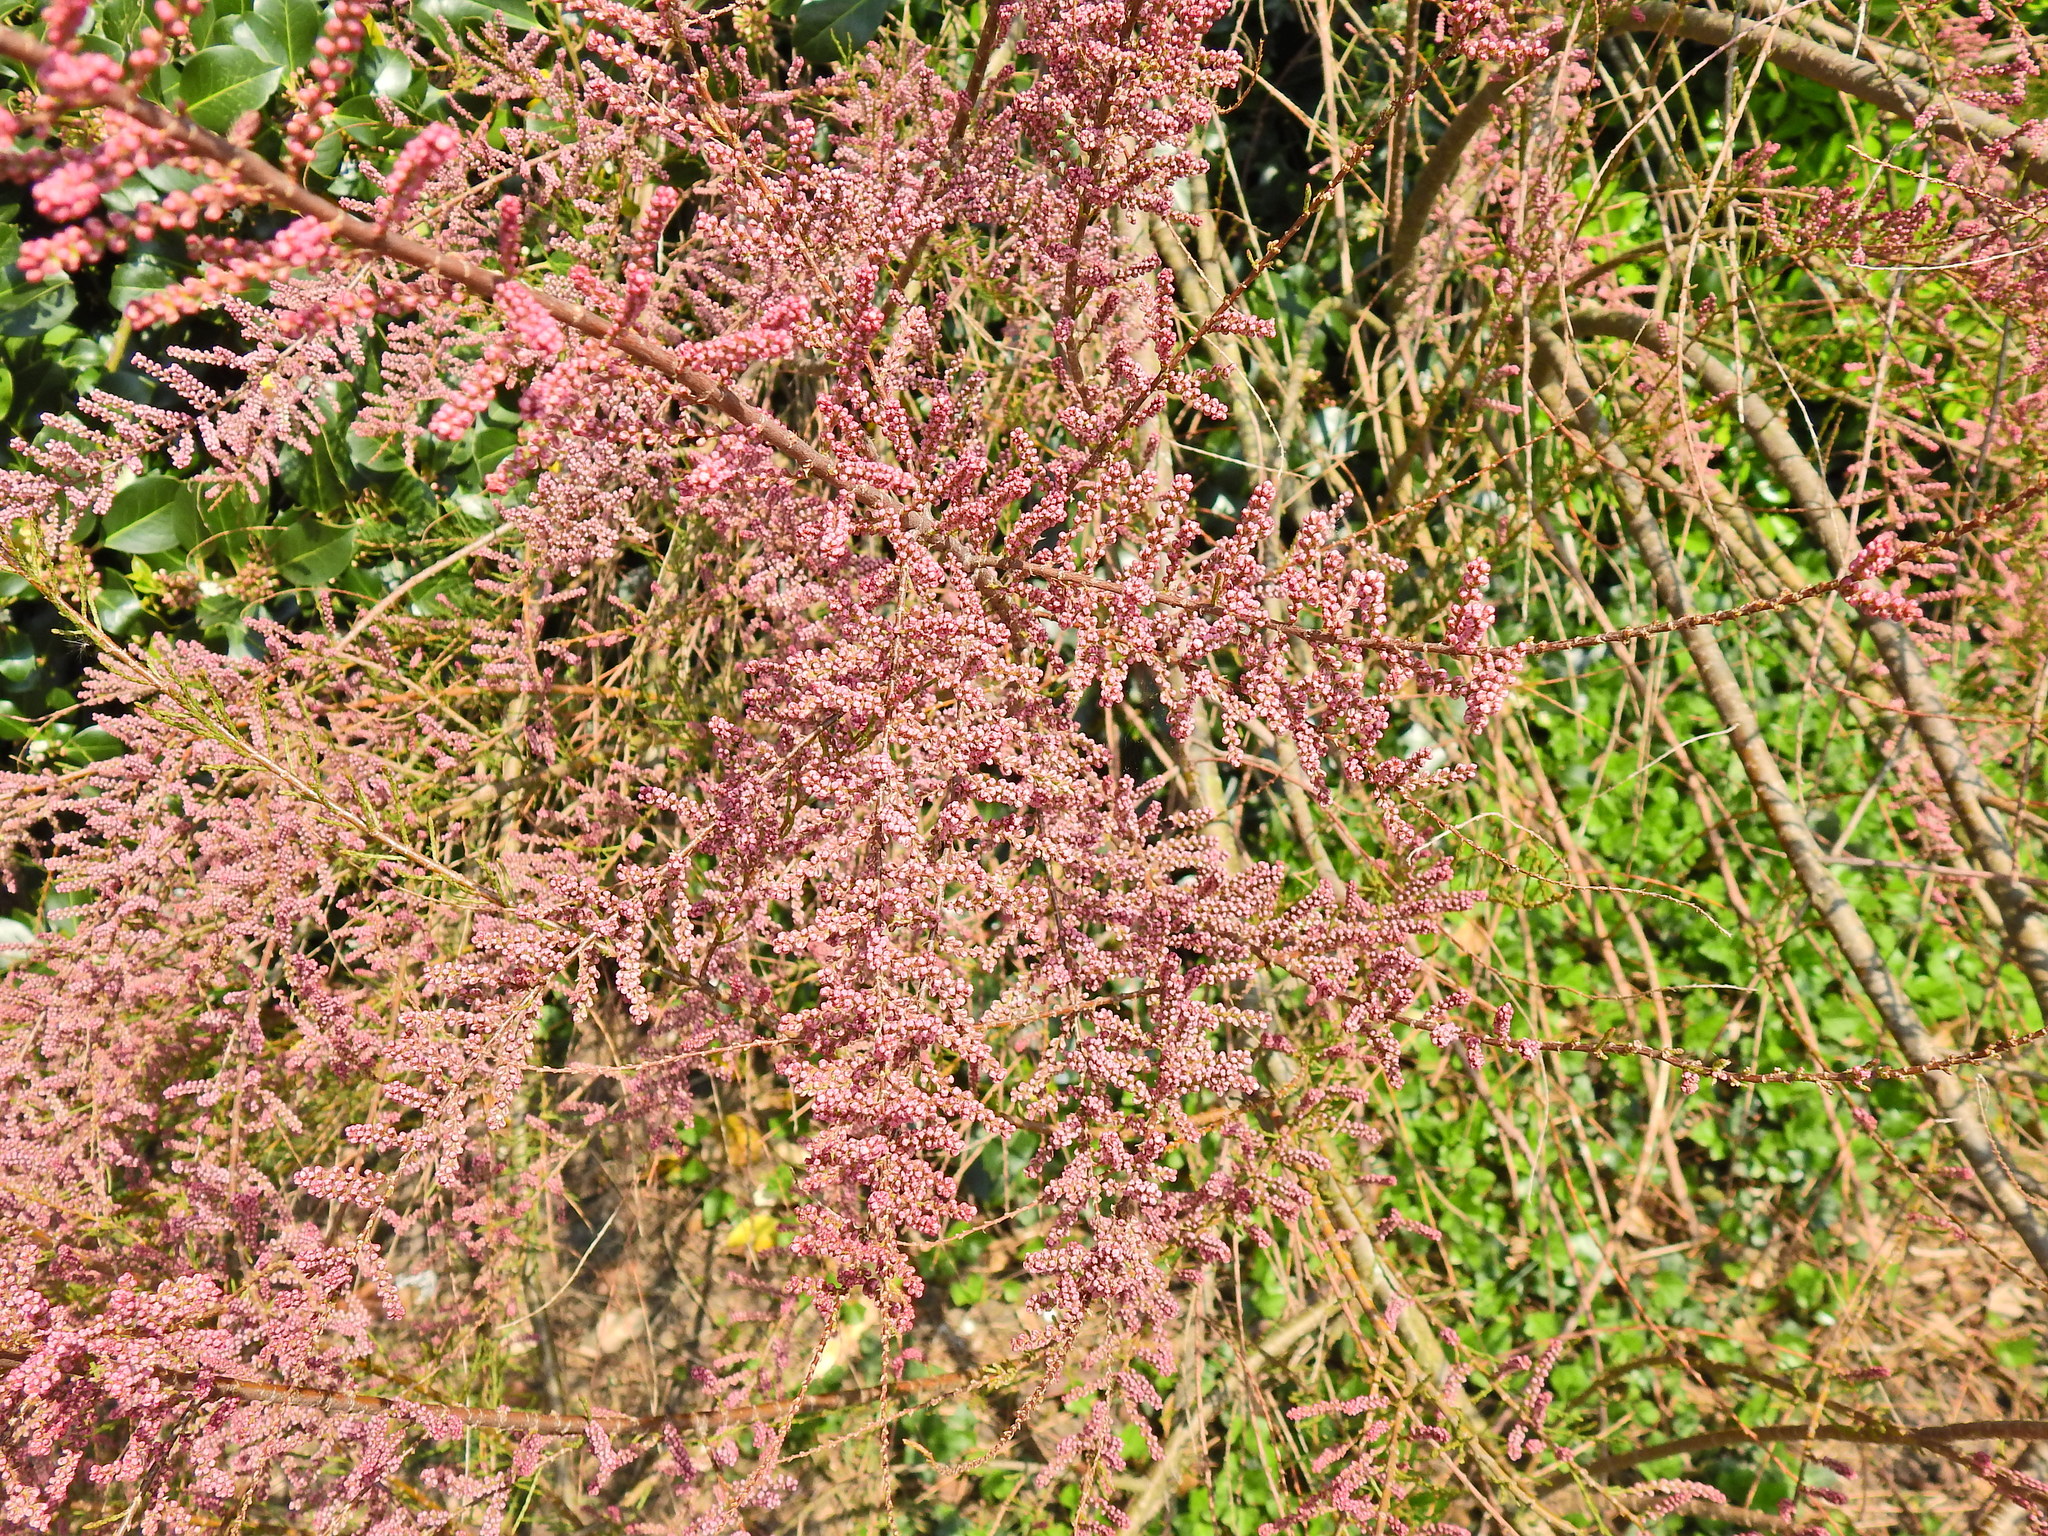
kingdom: Plantae
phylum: Tracheophyta
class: Magnoliopsida
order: Caryophyllales
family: Tamaricaceae
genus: Tamarix
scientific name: Tamarix gallica
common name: Tamarisk
